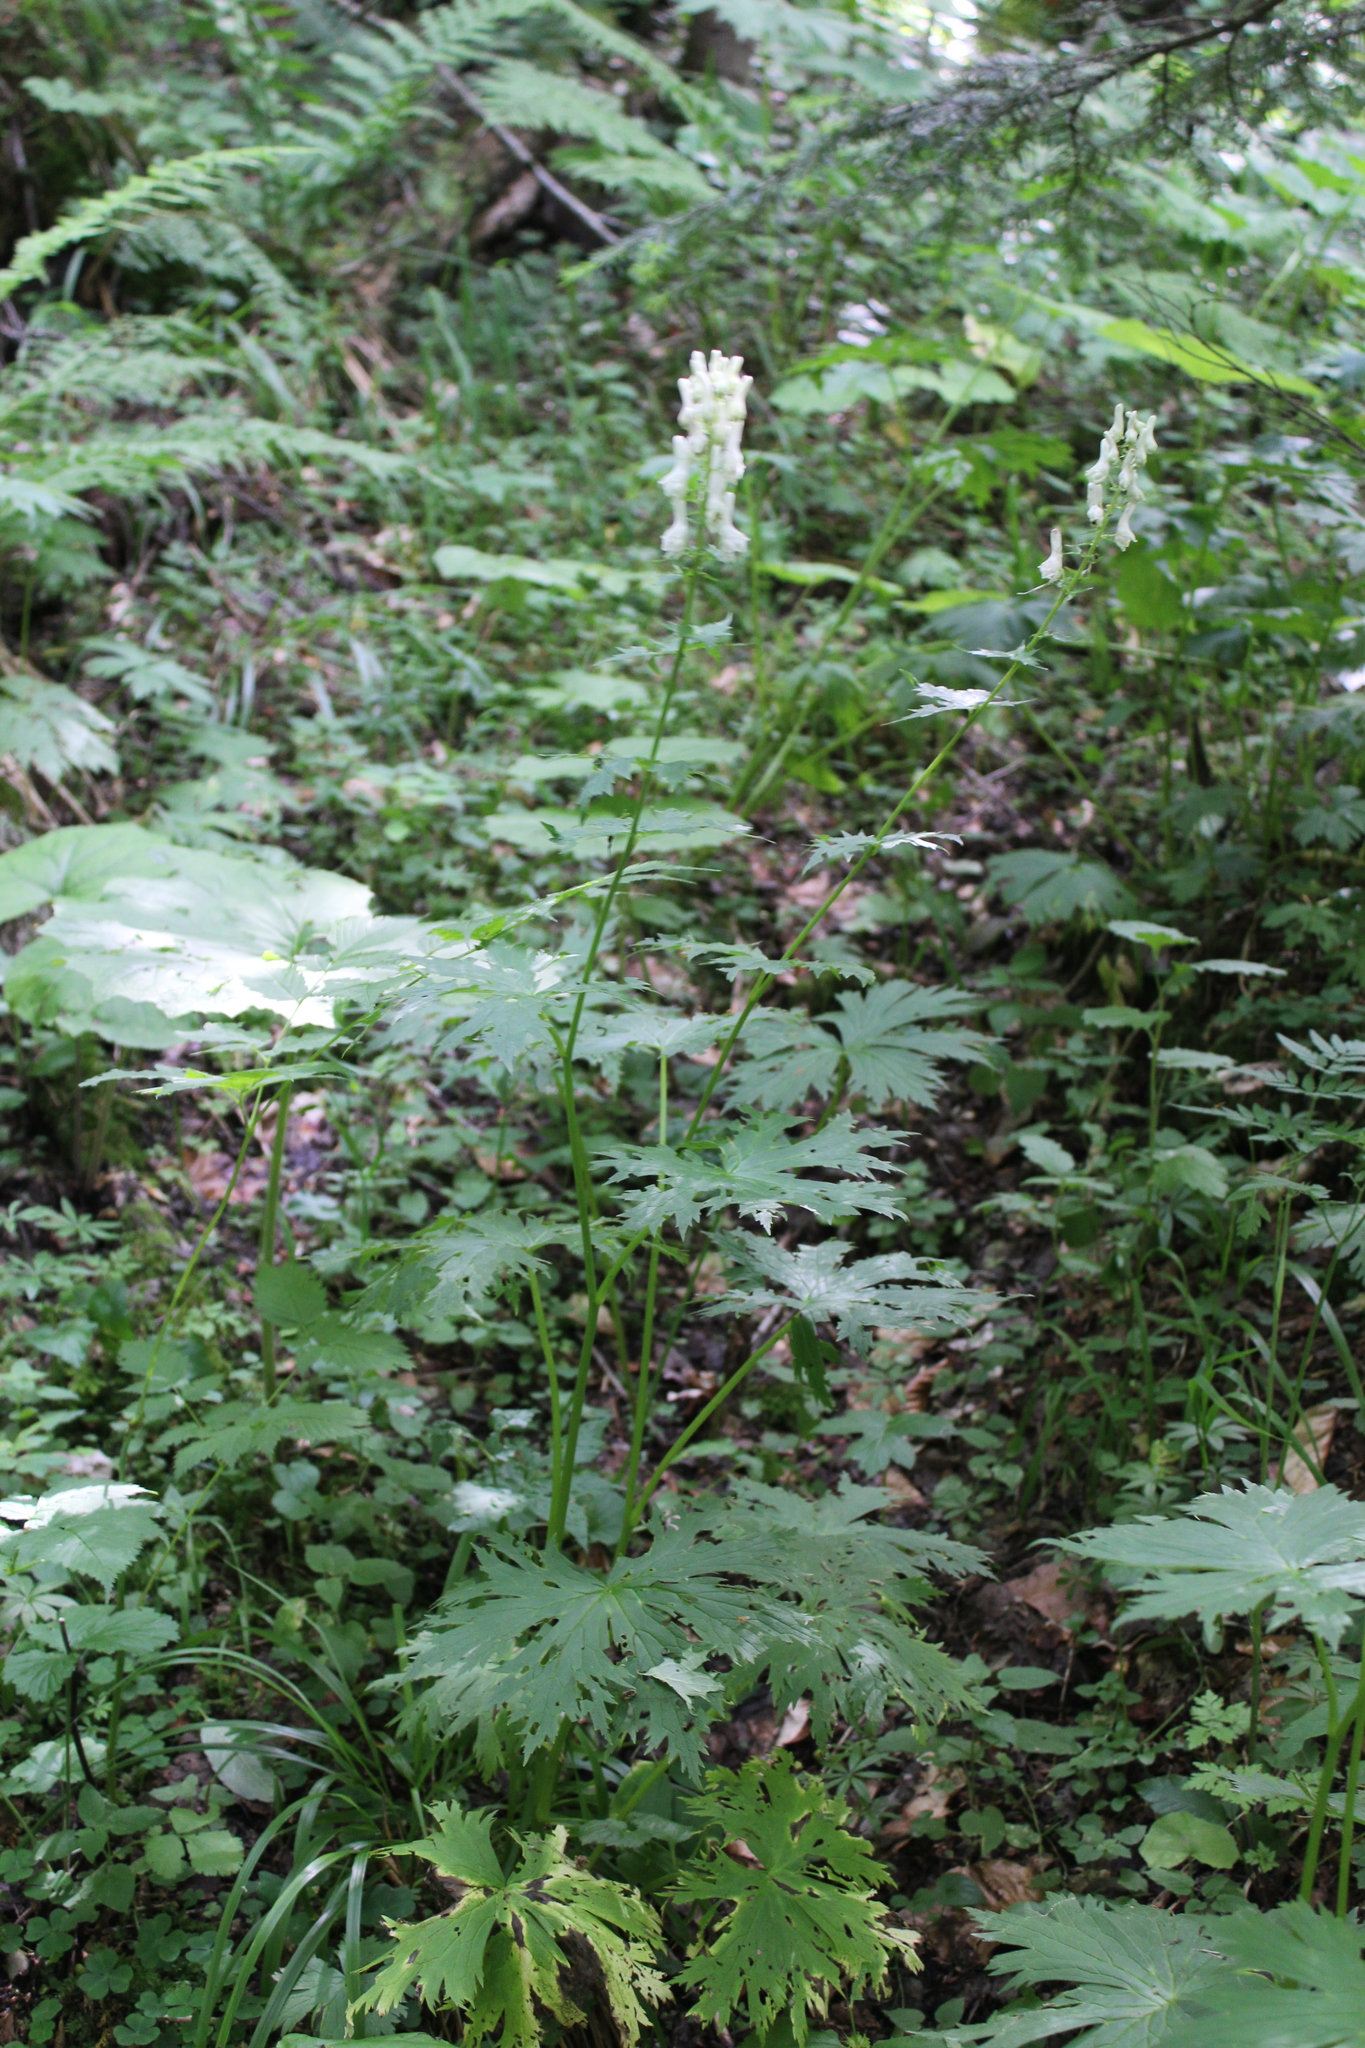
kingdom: Plantae
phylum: Tracheophyta
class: Magnoliopsida
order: Ranunculales
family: Ranunculaceae
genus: Aconitum
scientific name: Aconitum orientale
